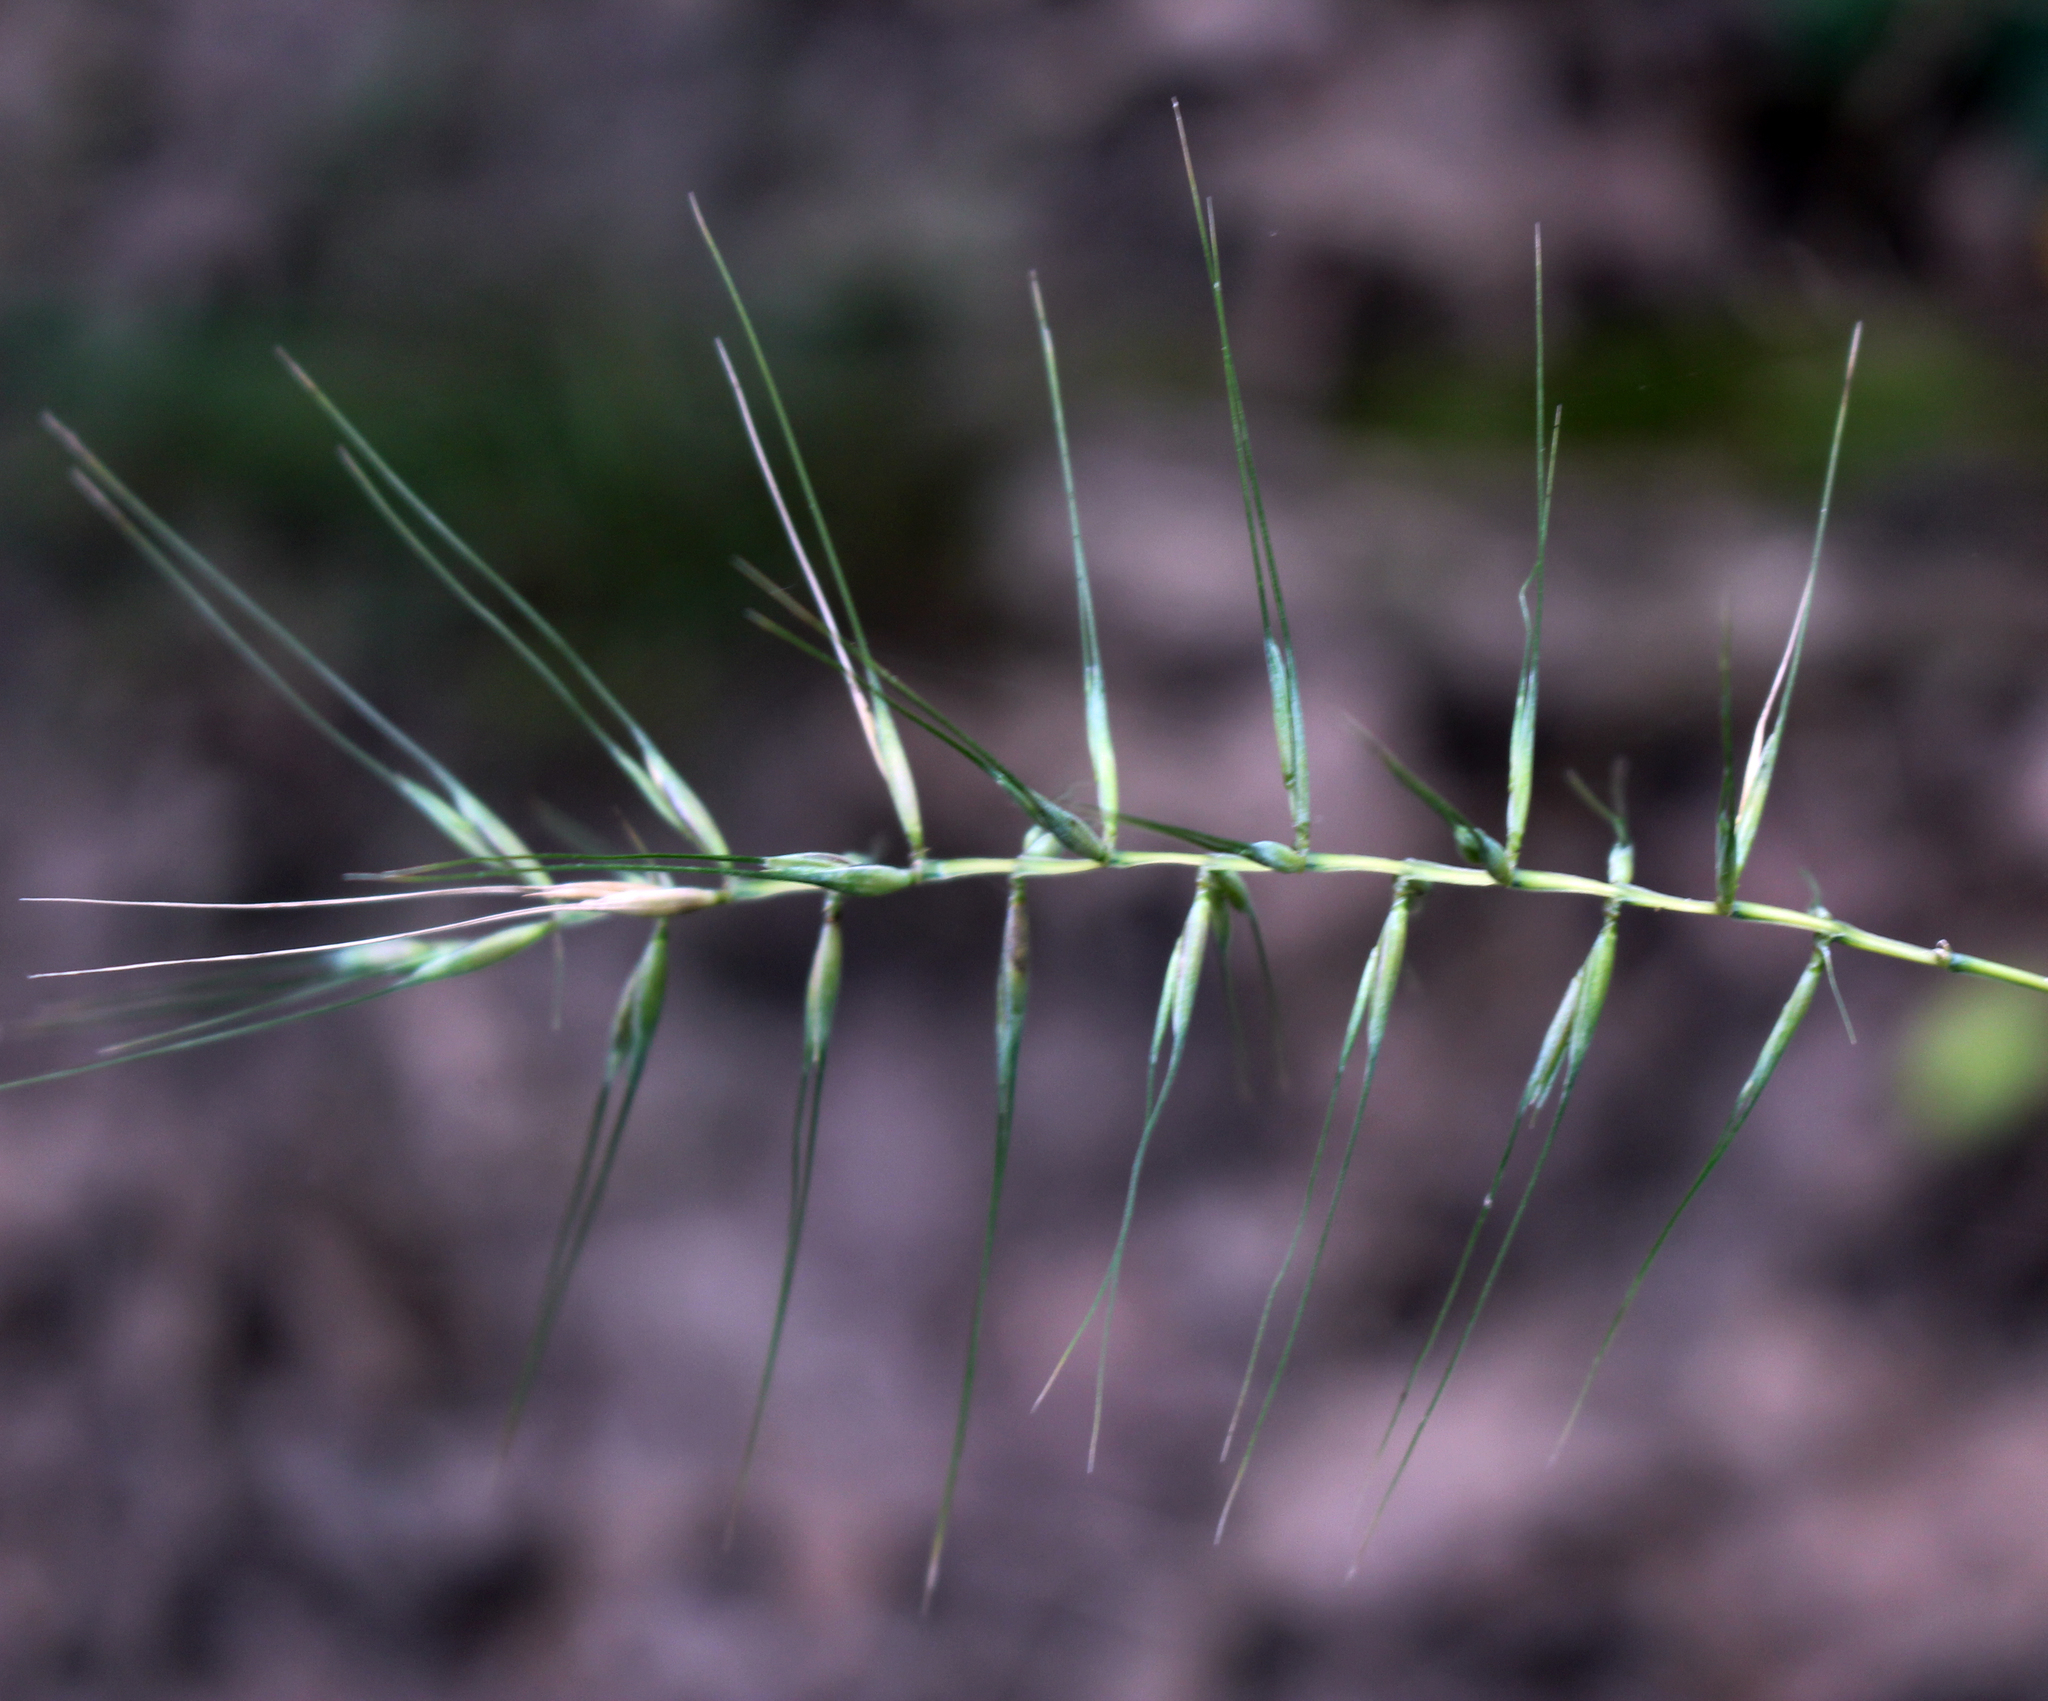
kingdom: Plantae
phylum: Tracheophyta
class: Liliopsida
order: Poales
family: Poaceae
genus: Elymus
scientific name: Elymus hystrix
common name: Bottlebrush grass
